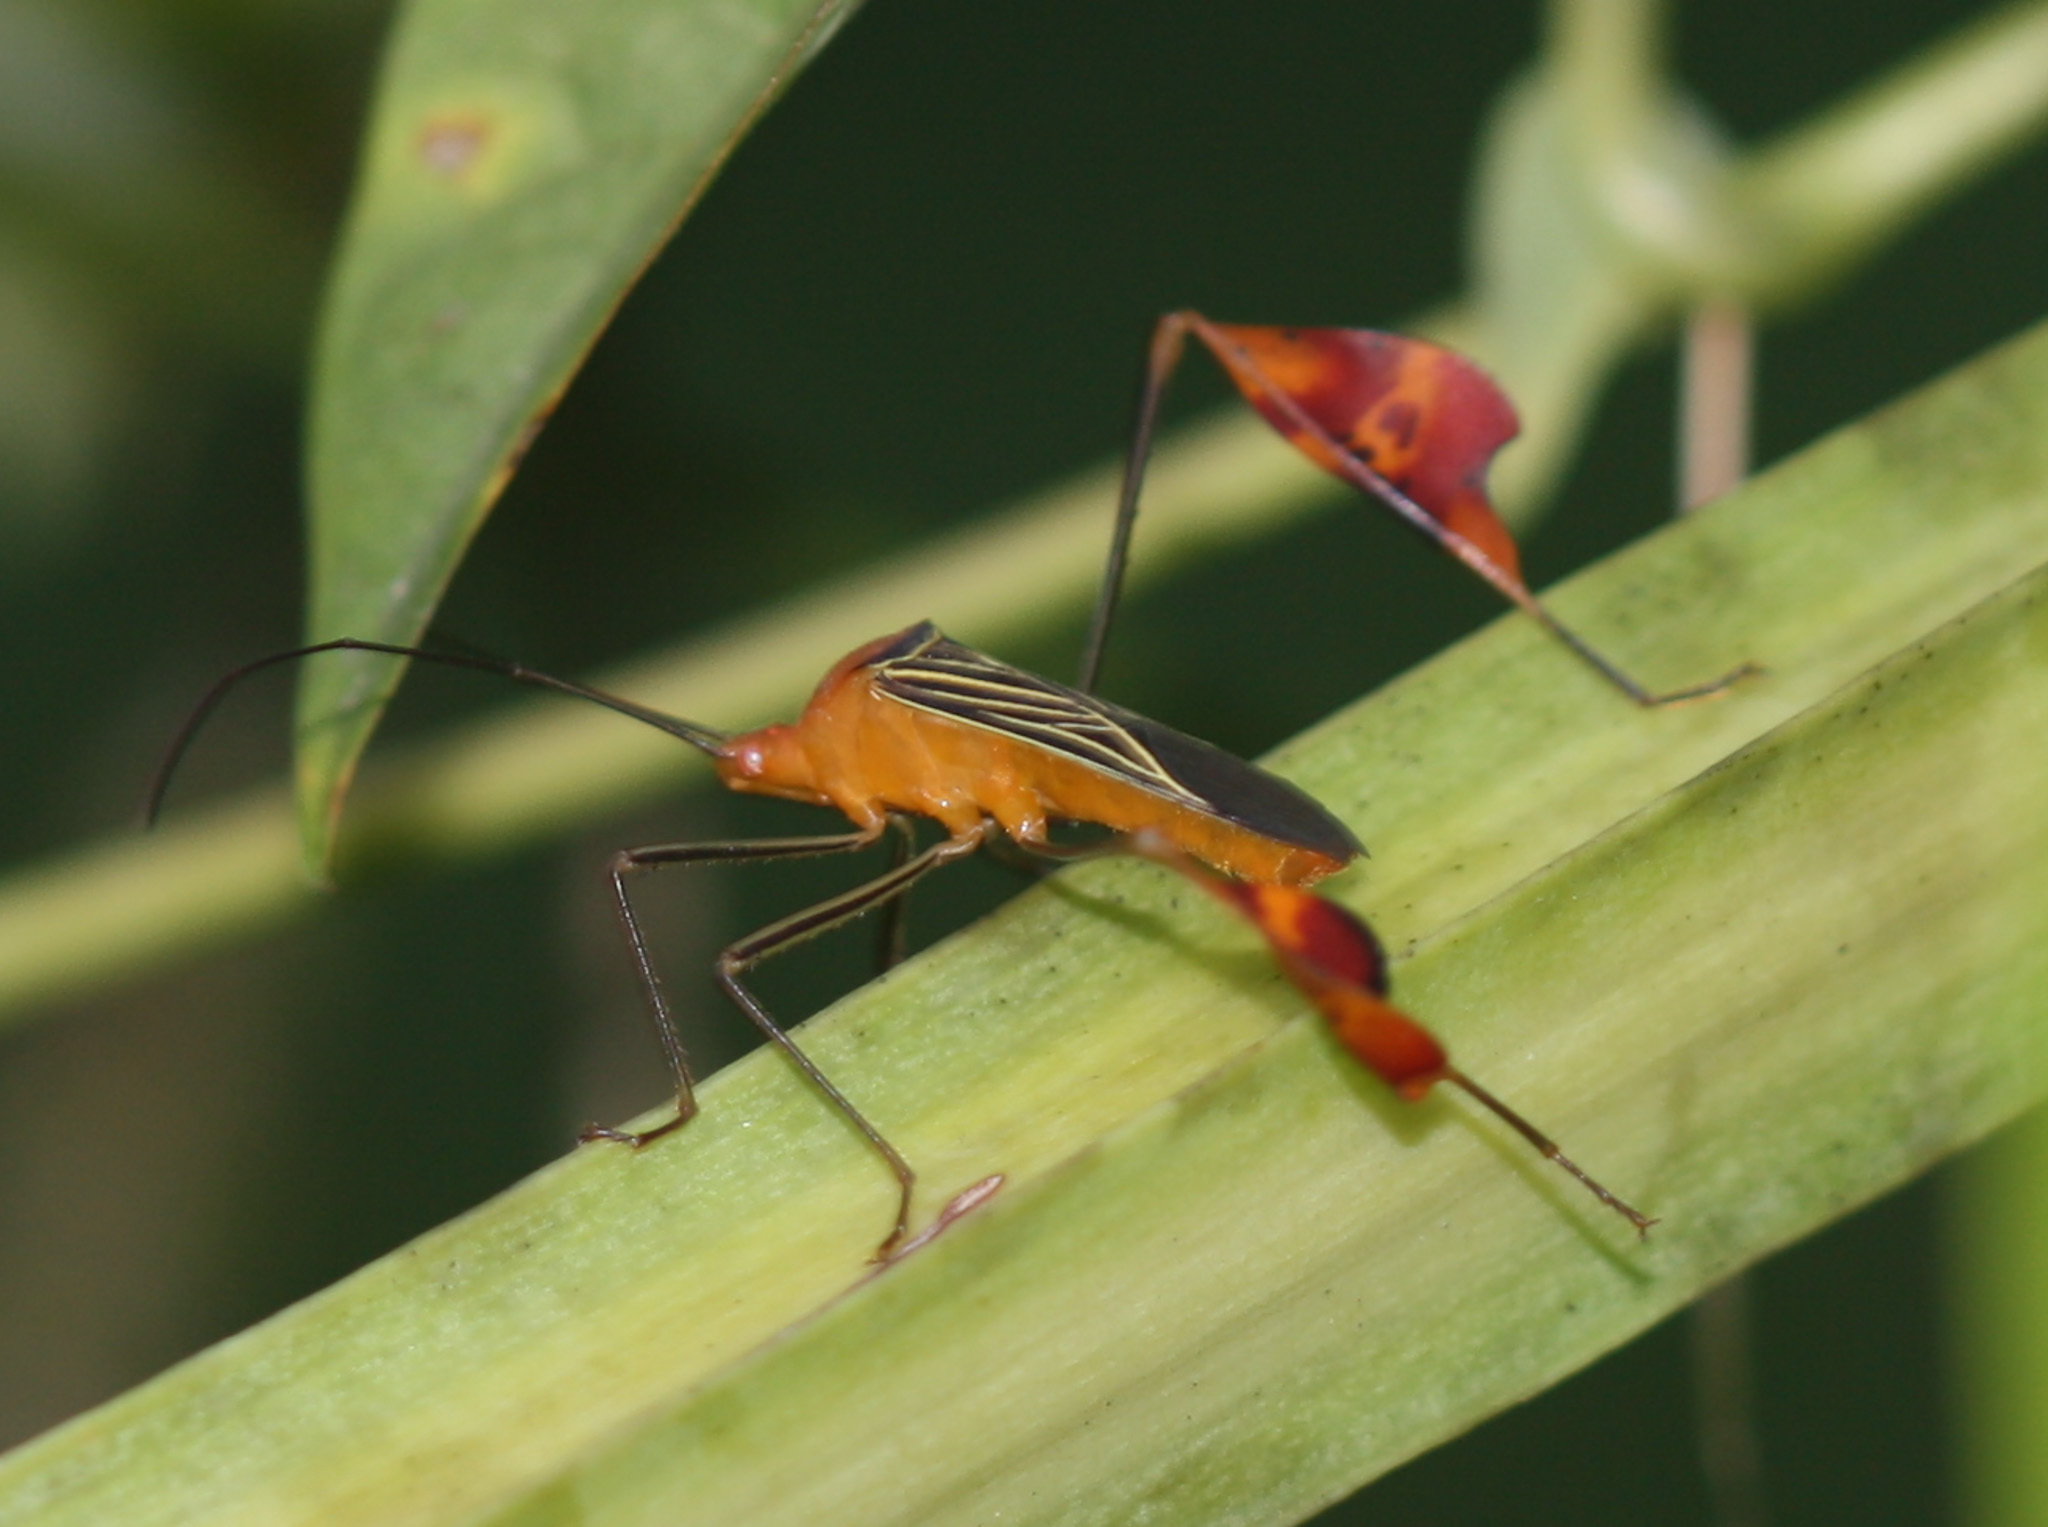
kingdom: Animalia
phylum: Arthropoda
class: Insecta
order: Hemiptera
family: Coreidae
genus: Bitta
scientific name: Bitta
